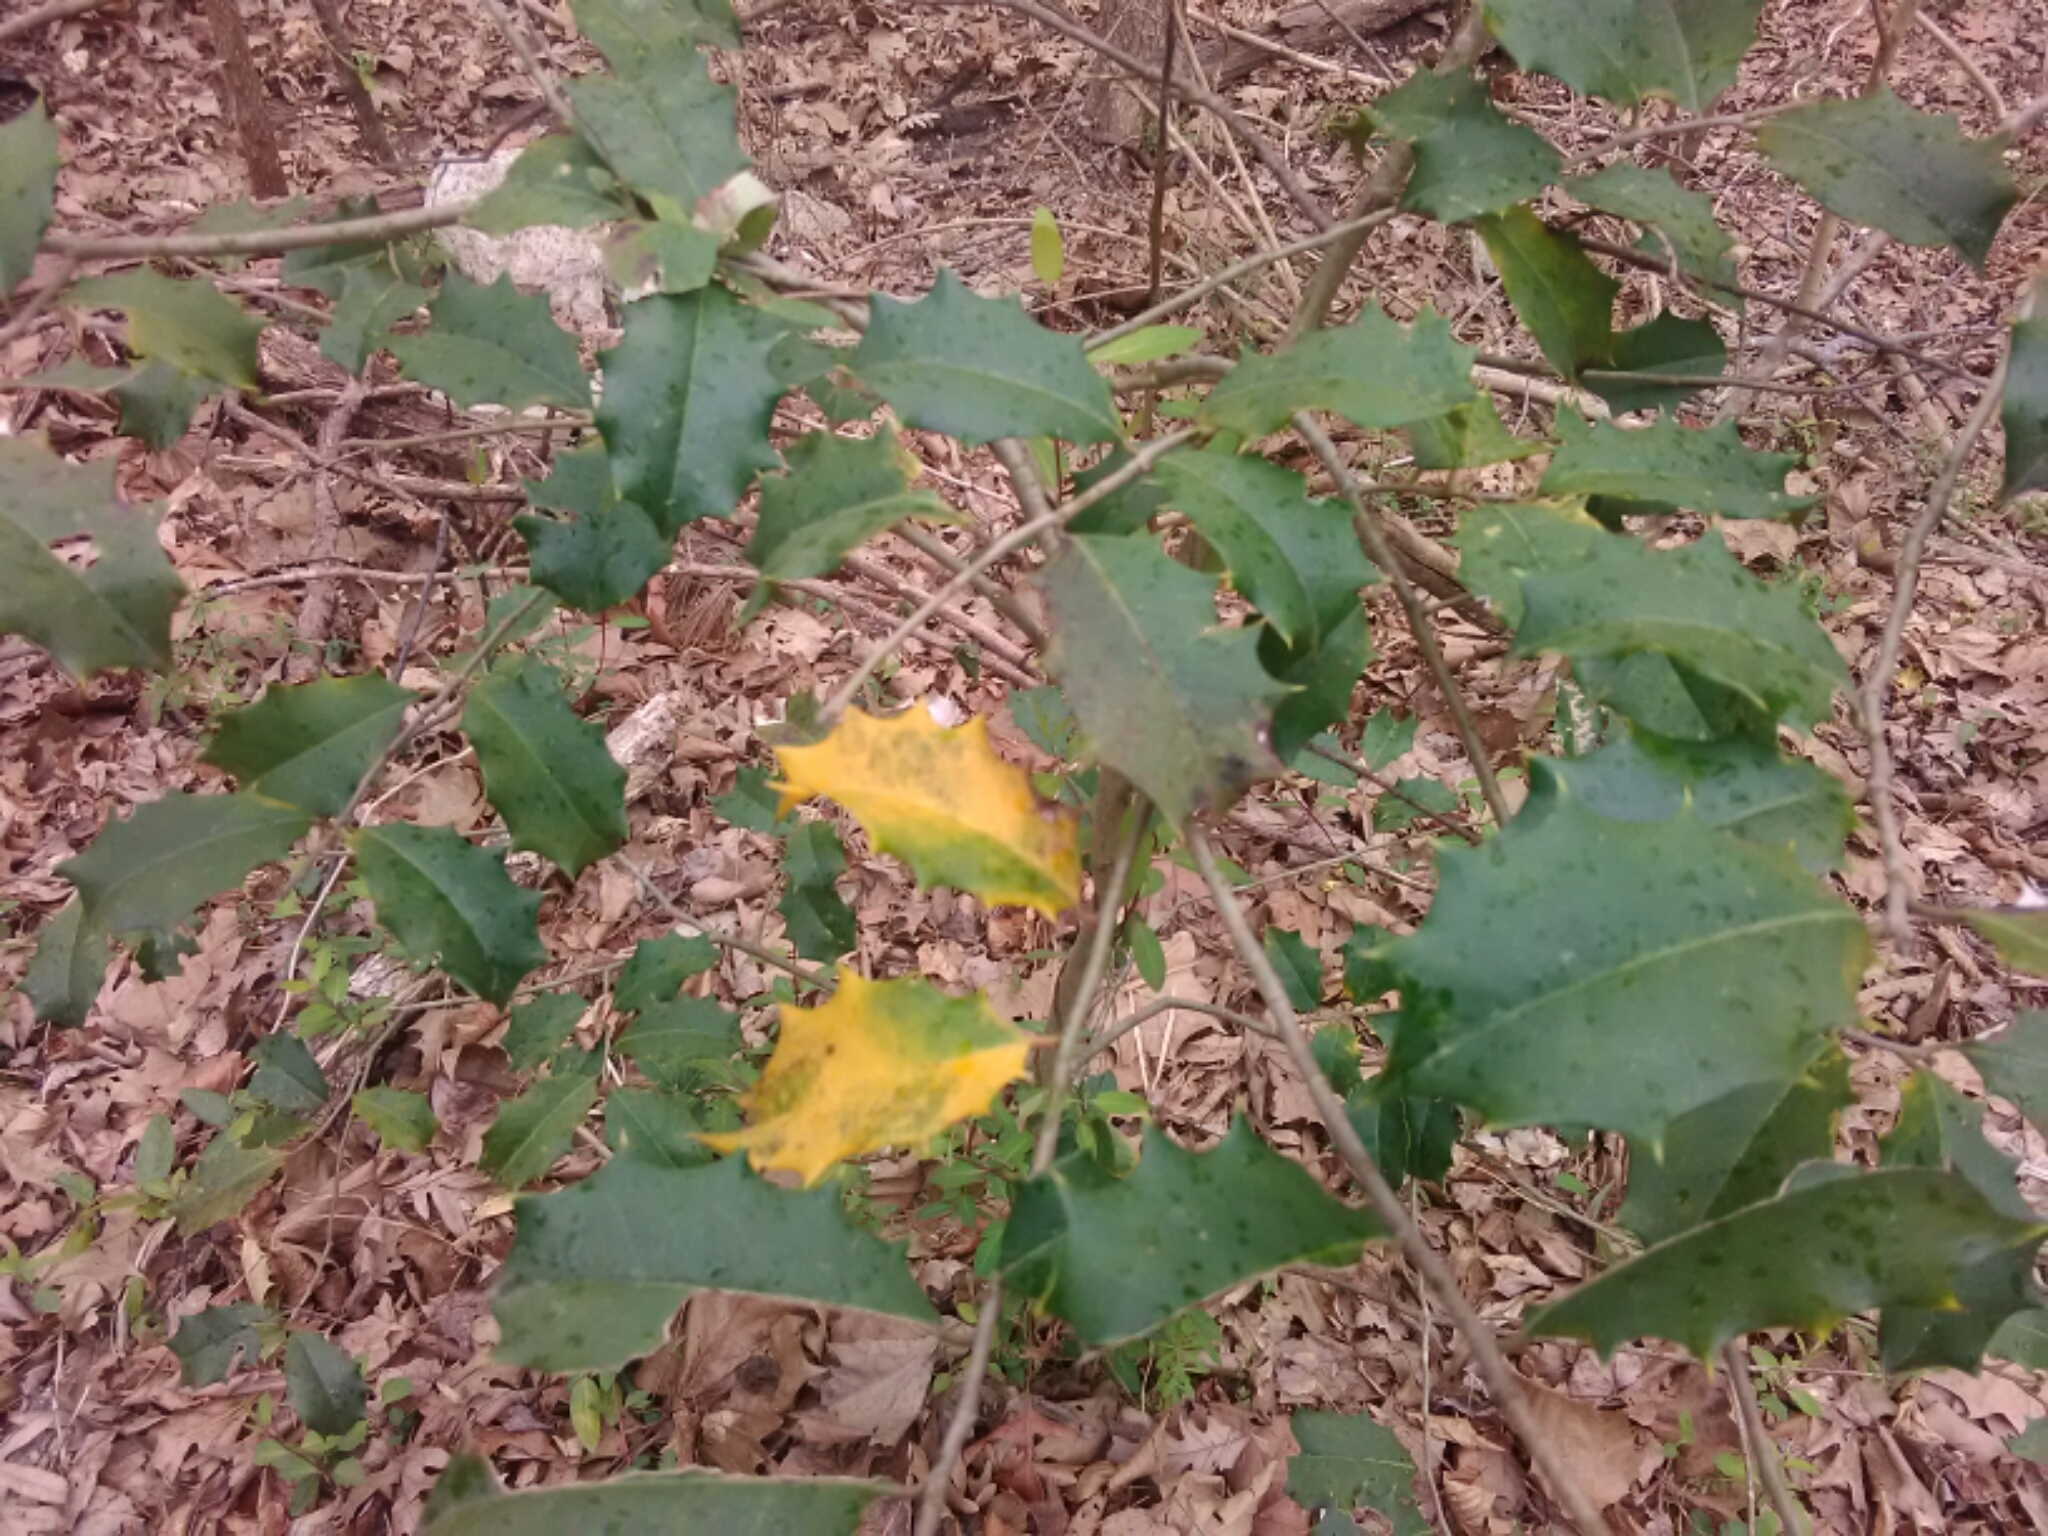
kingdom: Plantae
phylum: Tracheophyta
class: Magnoliopsida
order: Aquifoliales
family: Aquifoliaceae
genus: Ilex
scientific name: Ilex opaca
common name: American holly
